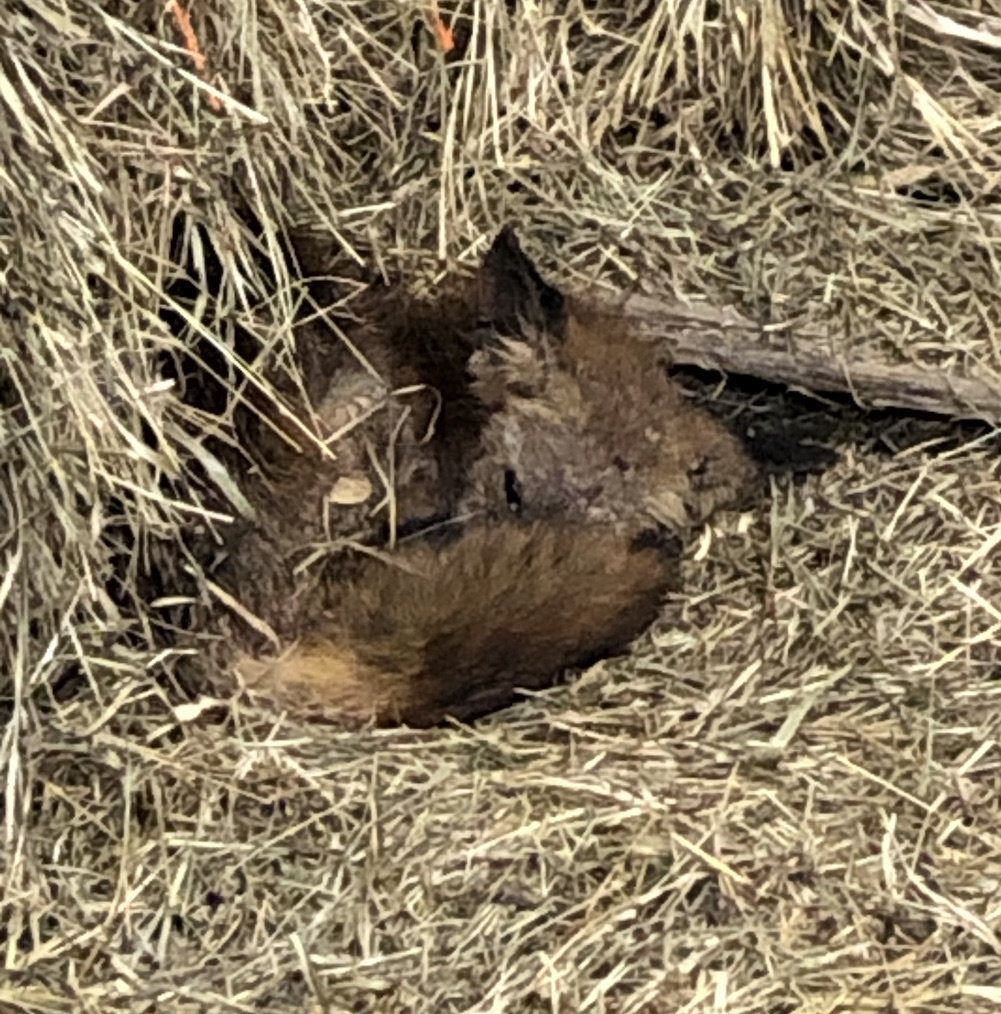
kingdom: Animalia
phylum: Arthropoda
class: Arachnida
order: Sarcoptiformes
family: Sarcoptidae
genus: Sarcoptes
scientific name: Sarcoptes scabiei
